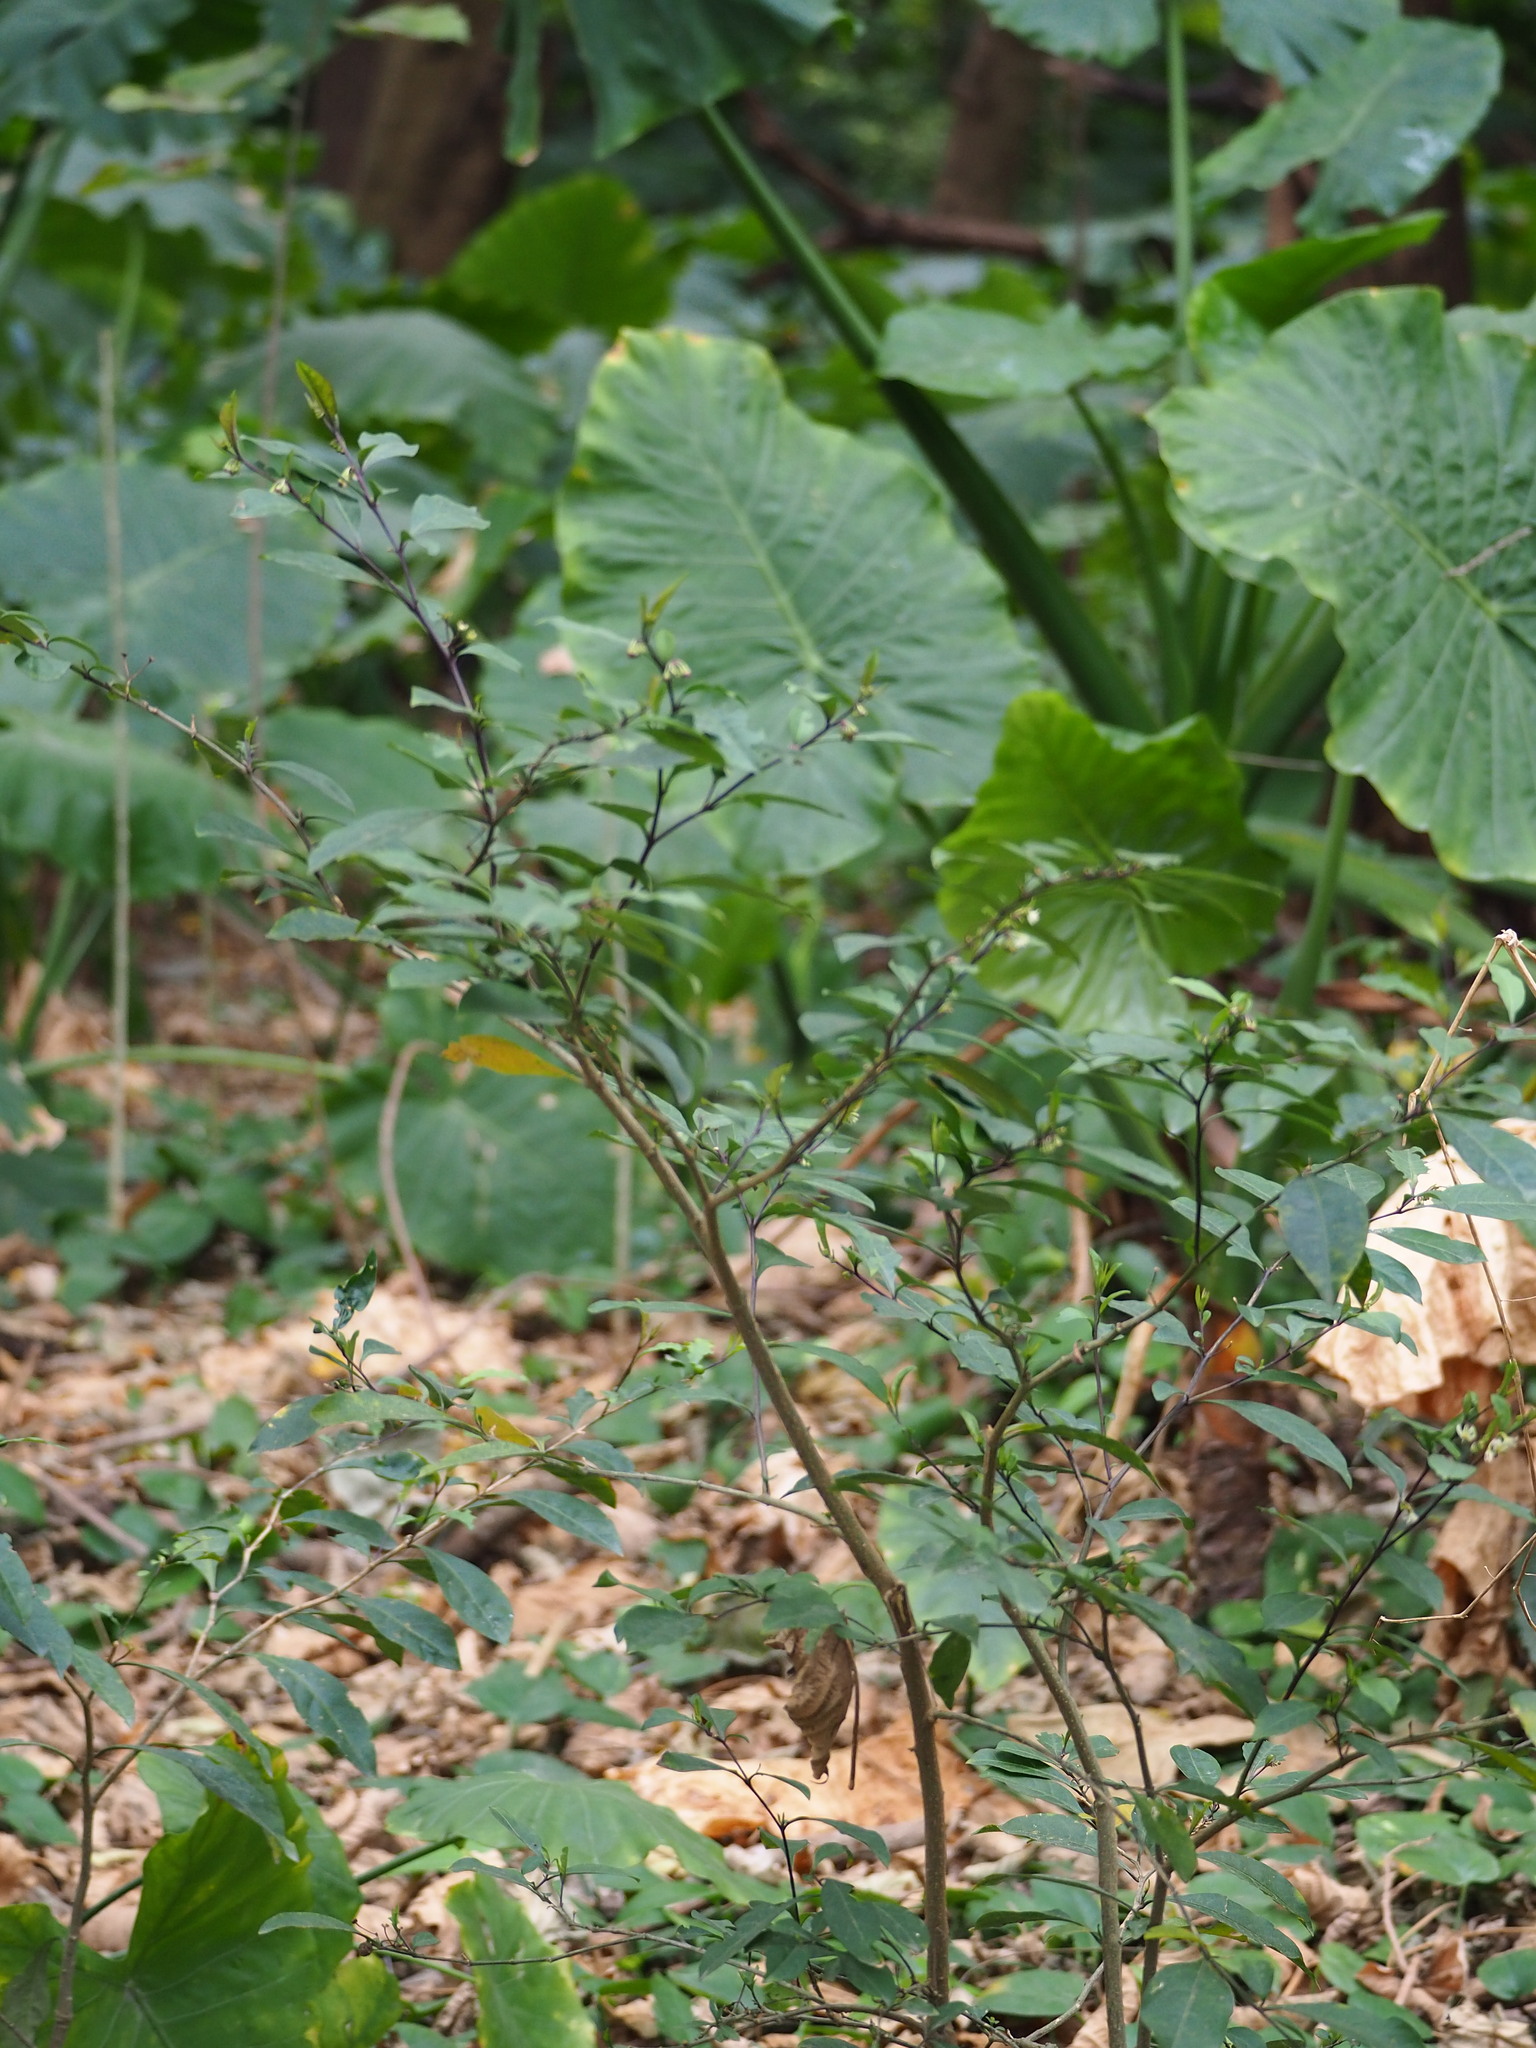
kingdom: Plantae
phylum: Tracheophyta
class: Magnoliopsida
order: Solanales
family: Solanaceae
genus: Solanum
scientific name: Solanum diphyllum
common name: Twoleaf nightshade
